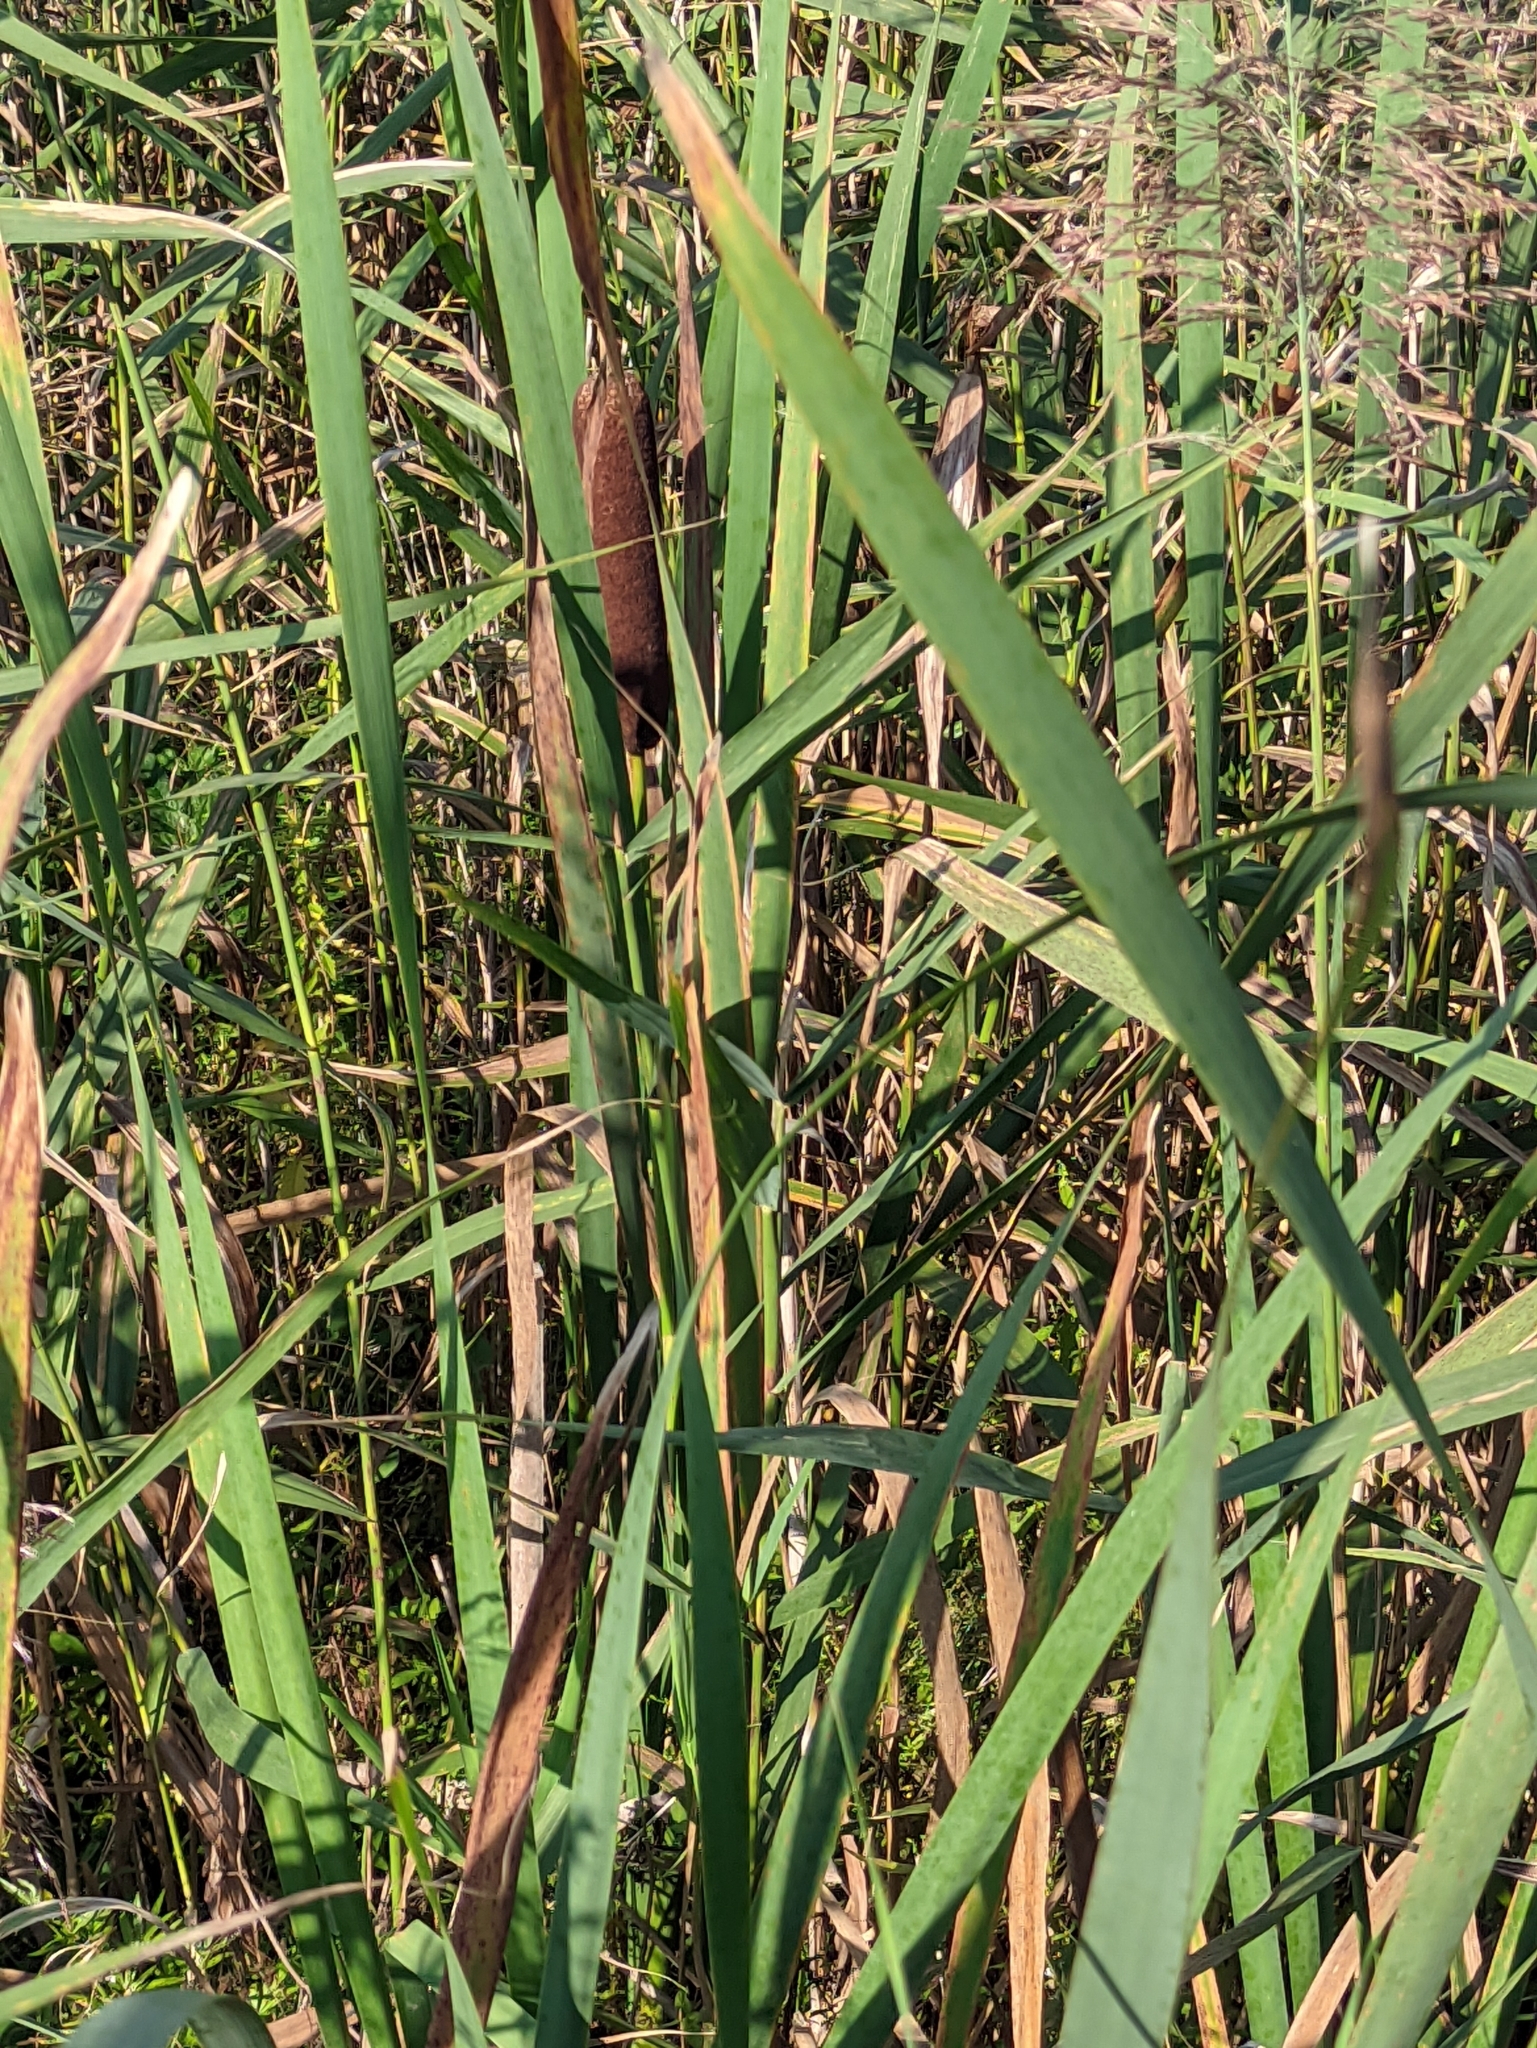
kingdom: Plantae
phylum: Tracheophyta
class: Liliopsida
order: Poales
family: Typhaceae
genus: Typha
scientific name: Typha latifolia
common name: Broadleaf cattail
